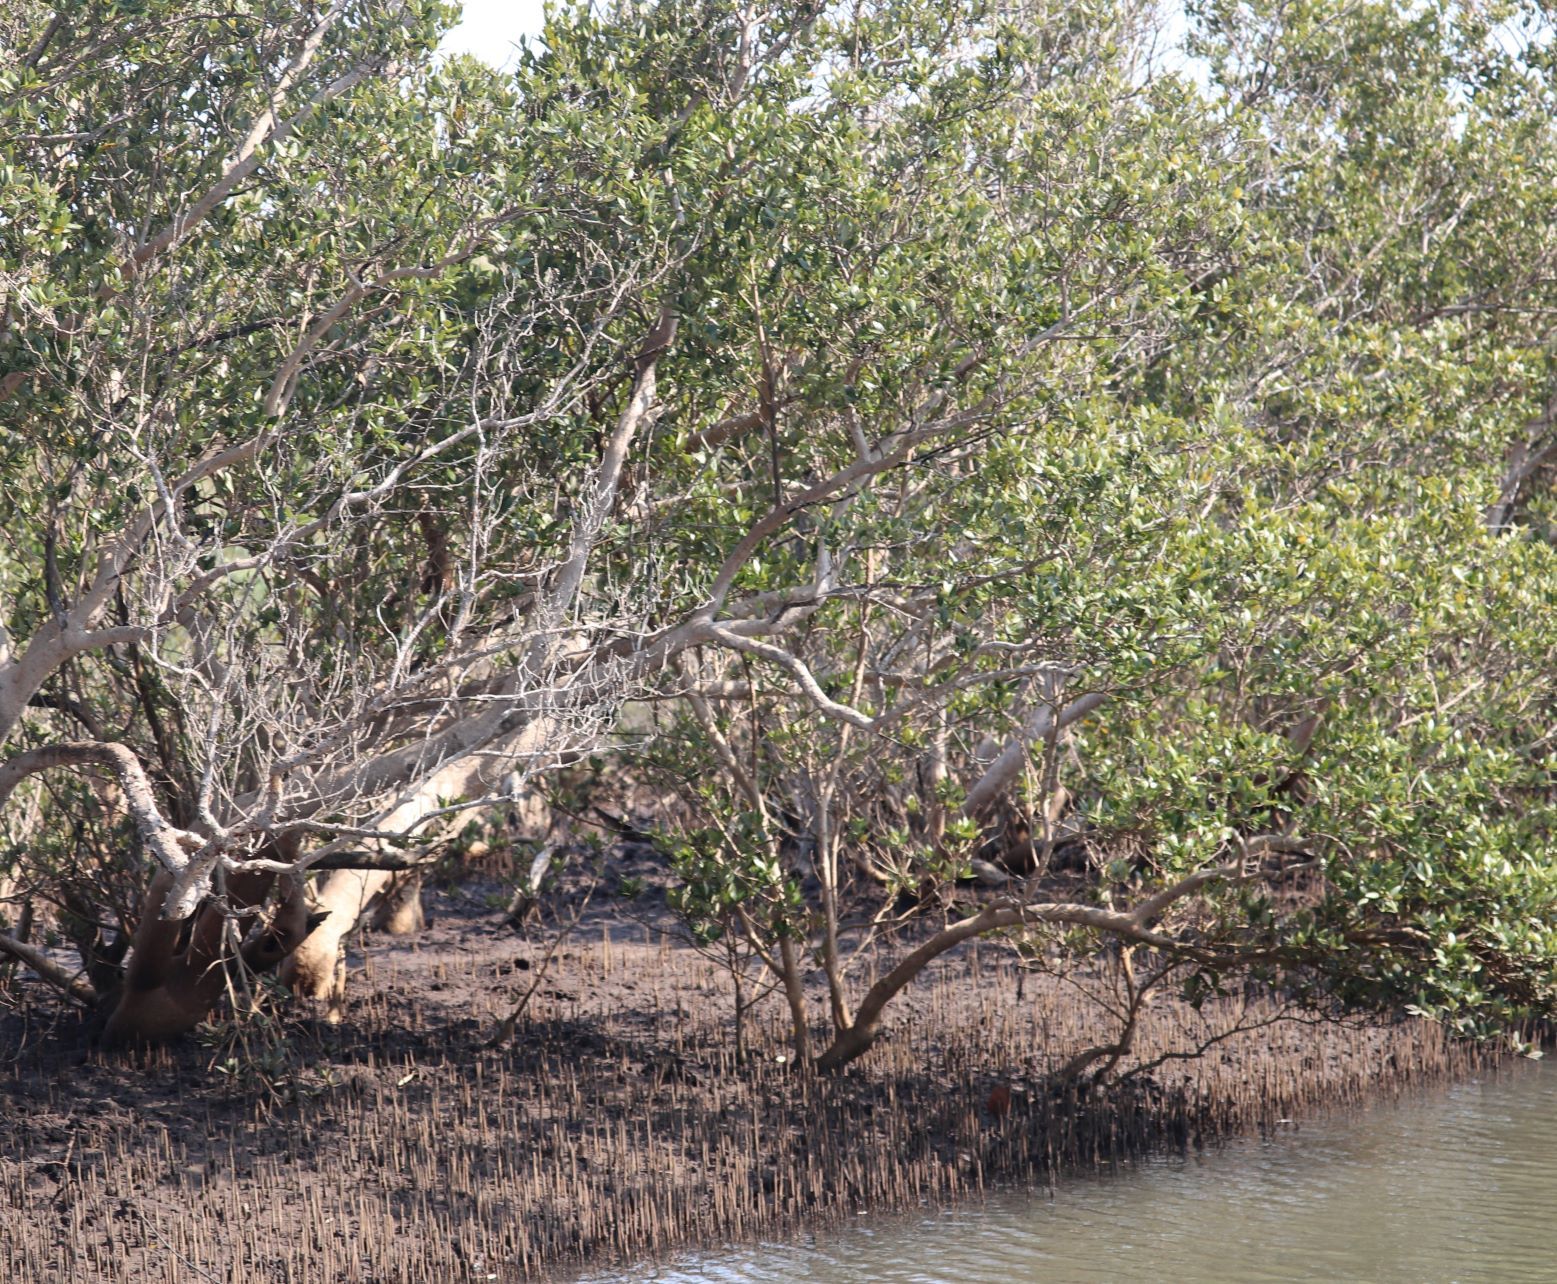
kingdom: Plantae
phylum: Tracheophyta
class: Magnoliopsida
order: Lamiales
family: Acanthaceae
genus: Avicennia
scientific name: Avicennia marina
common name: Gray mangrove
